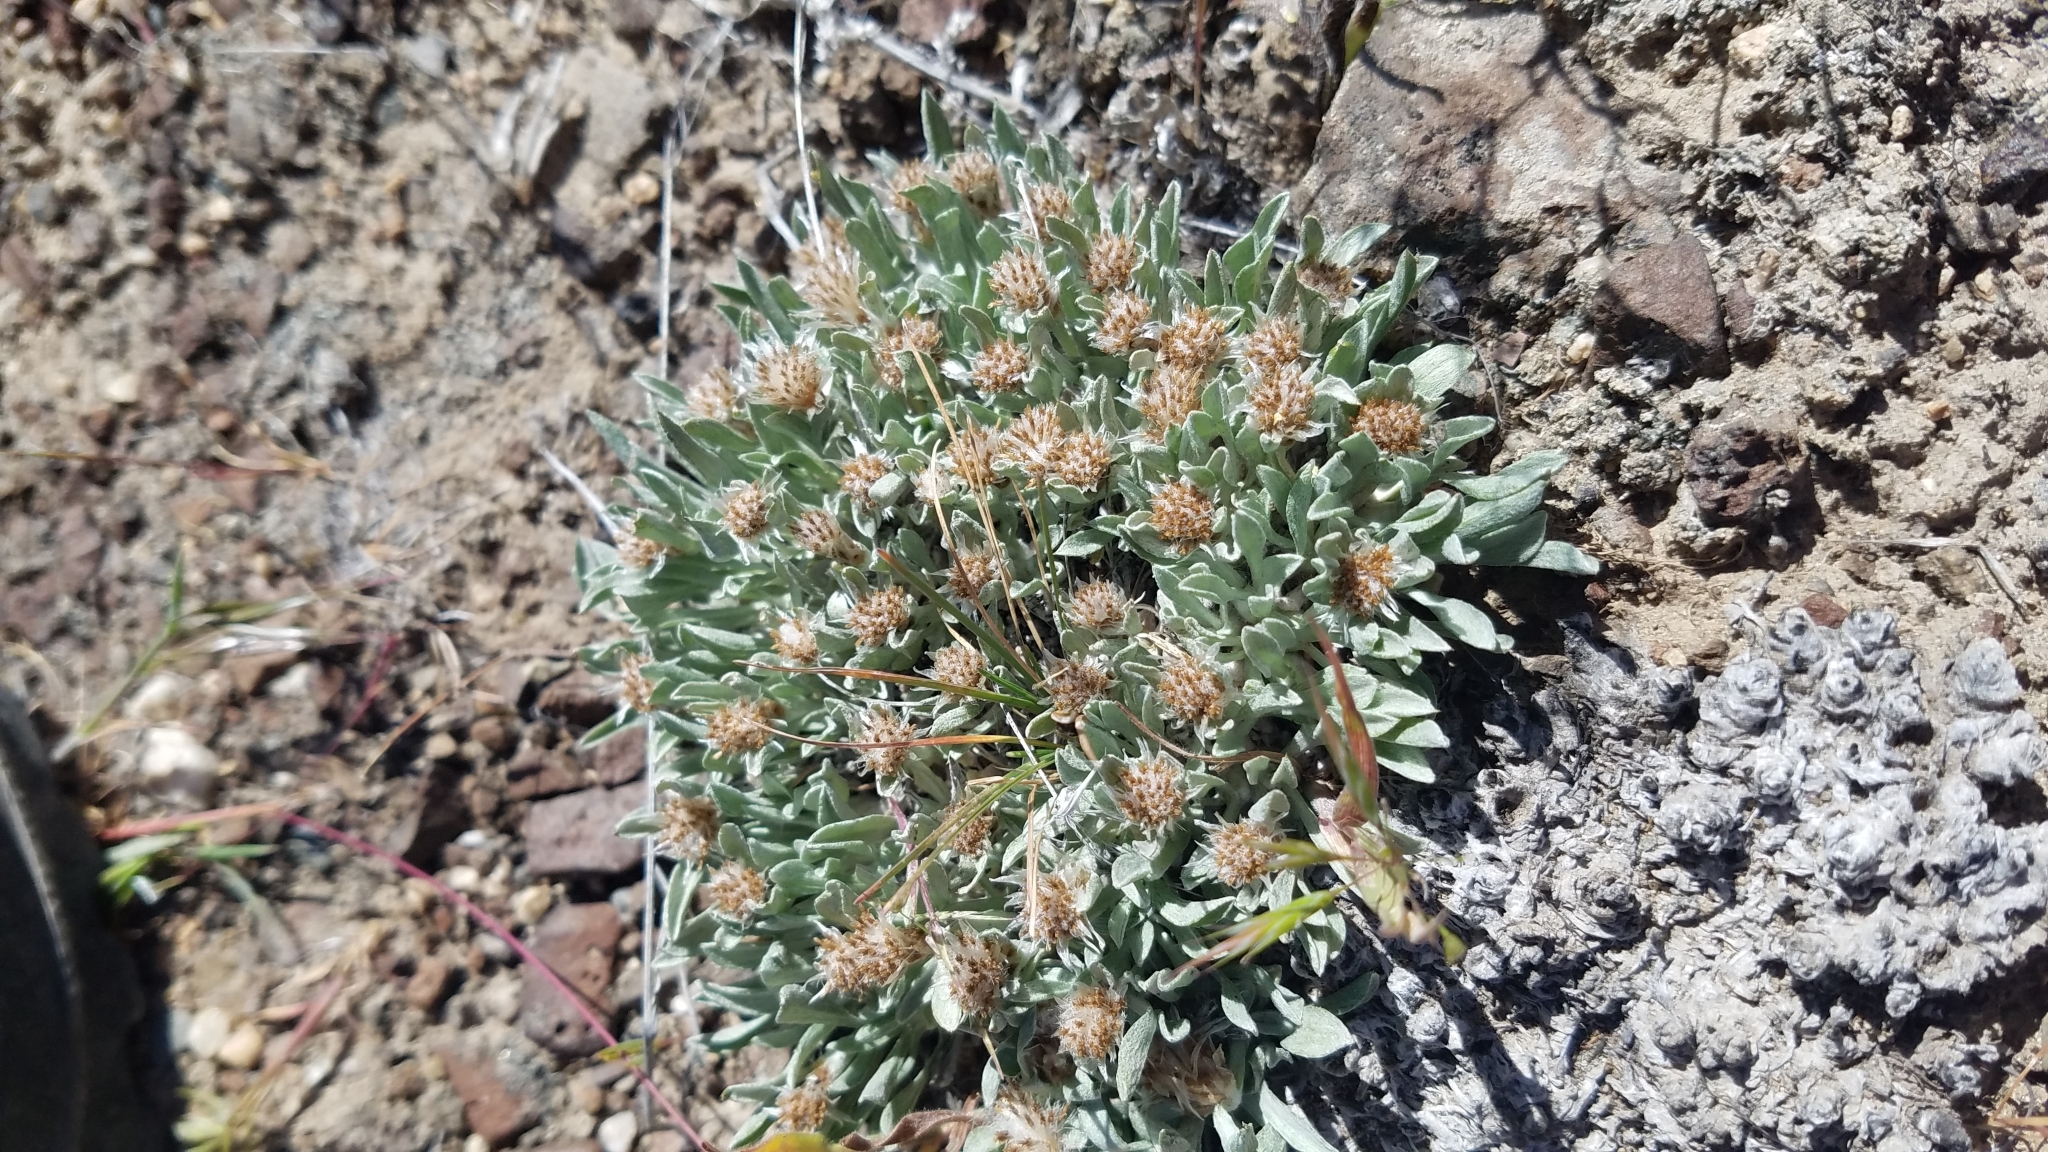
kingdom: Plantae
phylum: Tracheophyta
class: Magnoliopsida
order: Asterales
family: Asteraceae
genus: Antennaria
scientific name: Antennaria dimorpha
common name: Cushion pussytoes
